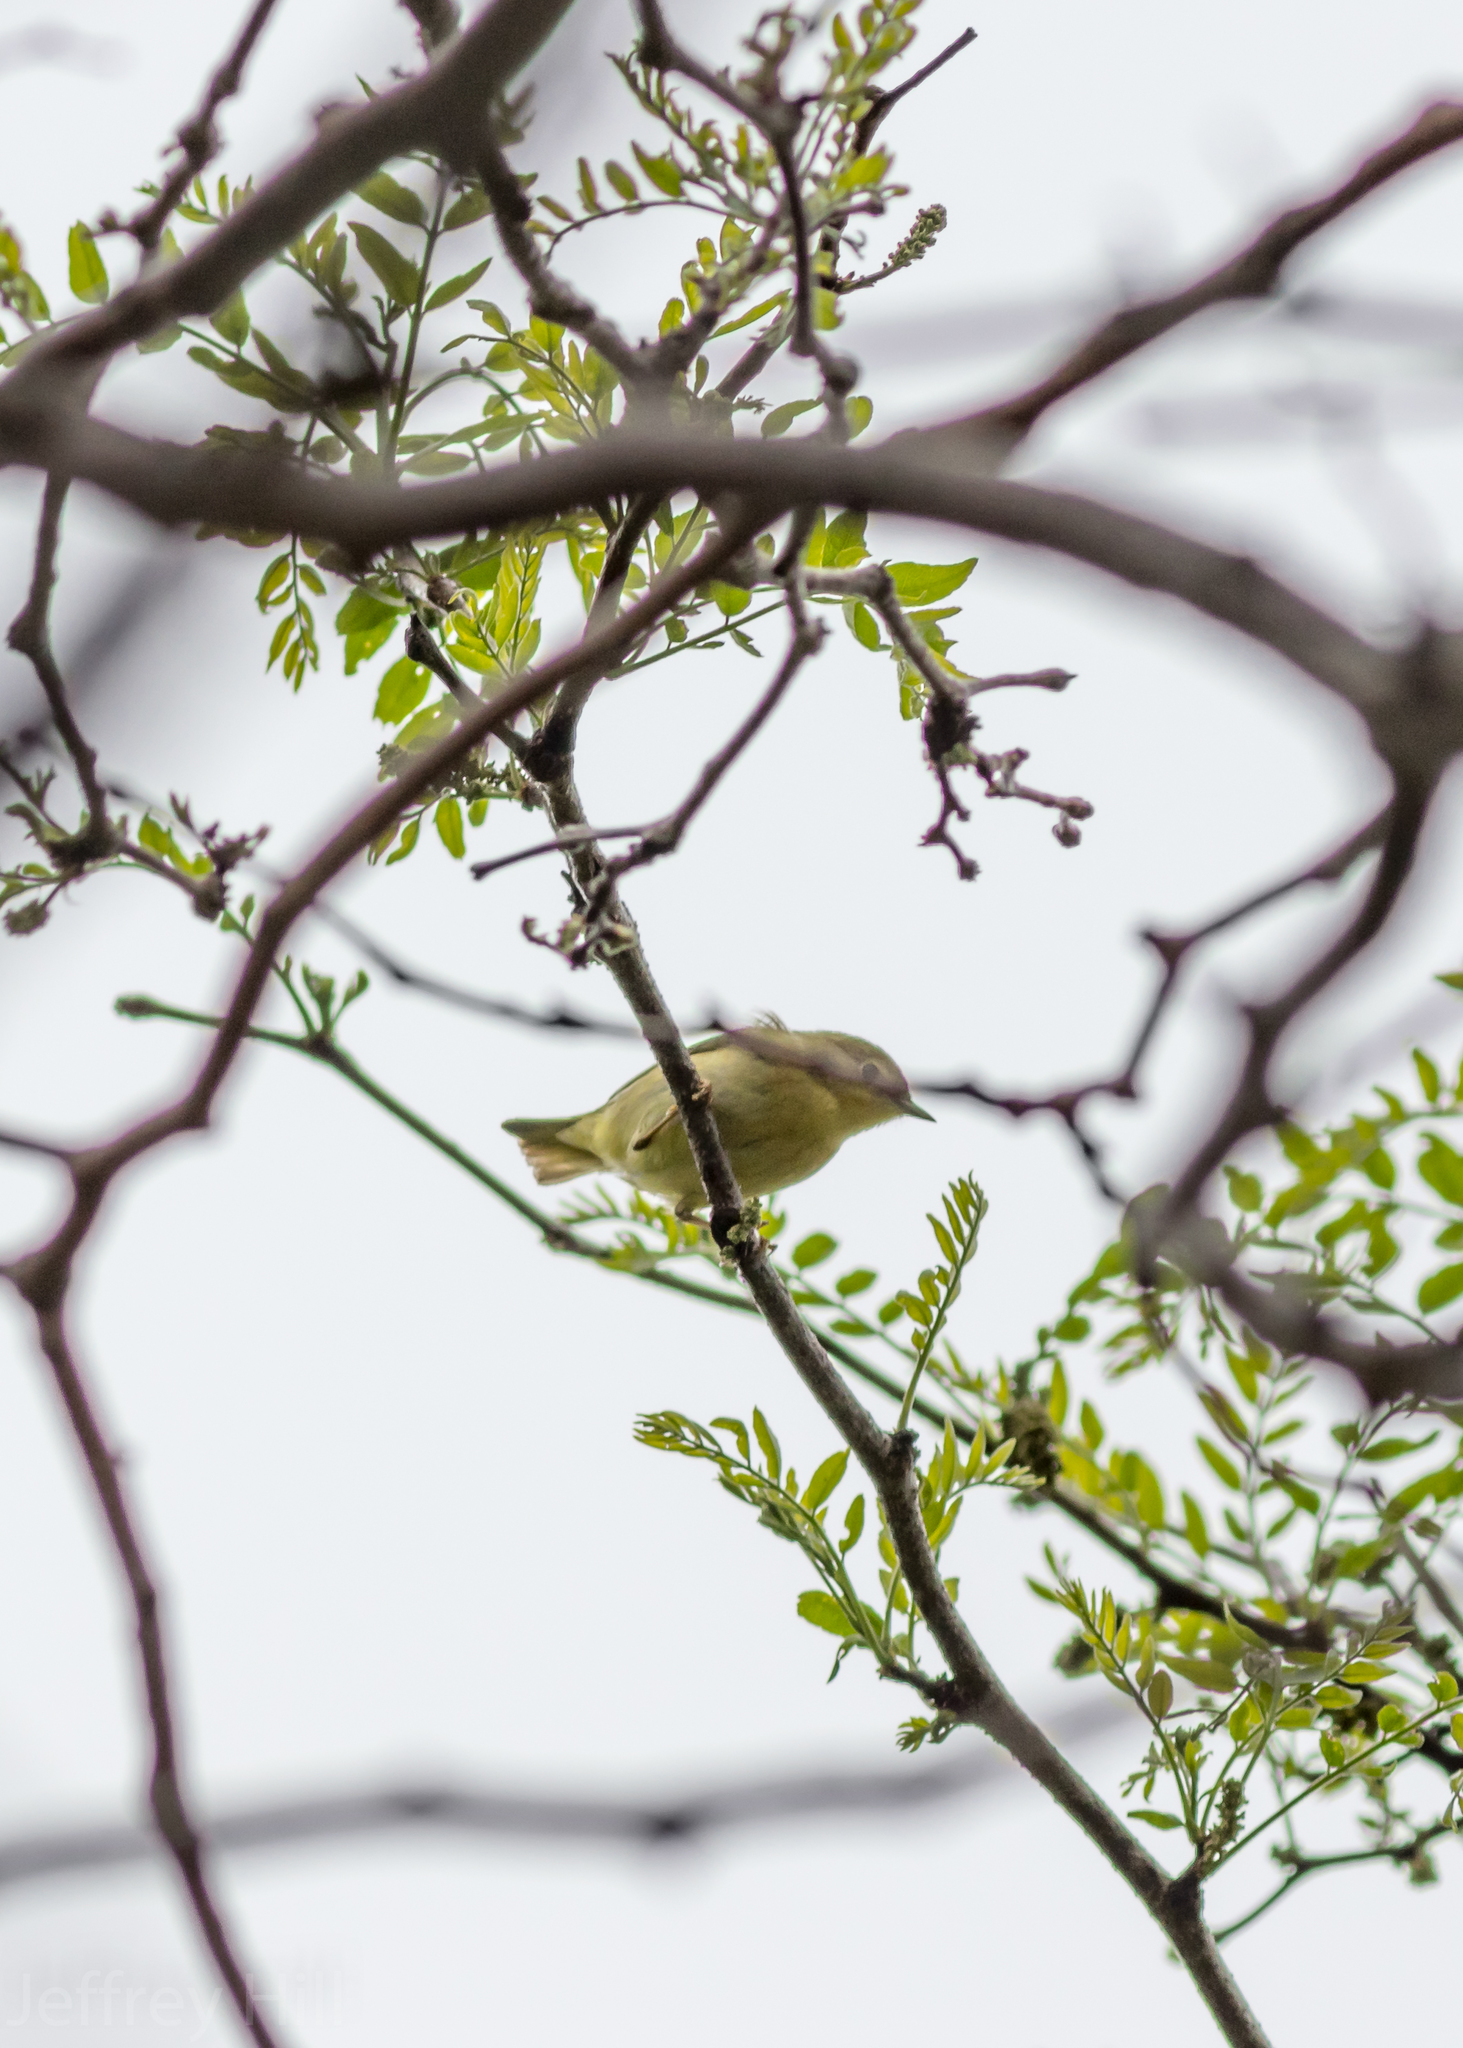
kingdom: Animalia
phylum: Chordata
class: Aves
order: Passeriformes
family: Parulidae
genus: Setophaga
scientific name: Setophaga petechia
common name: Yellow warbler
